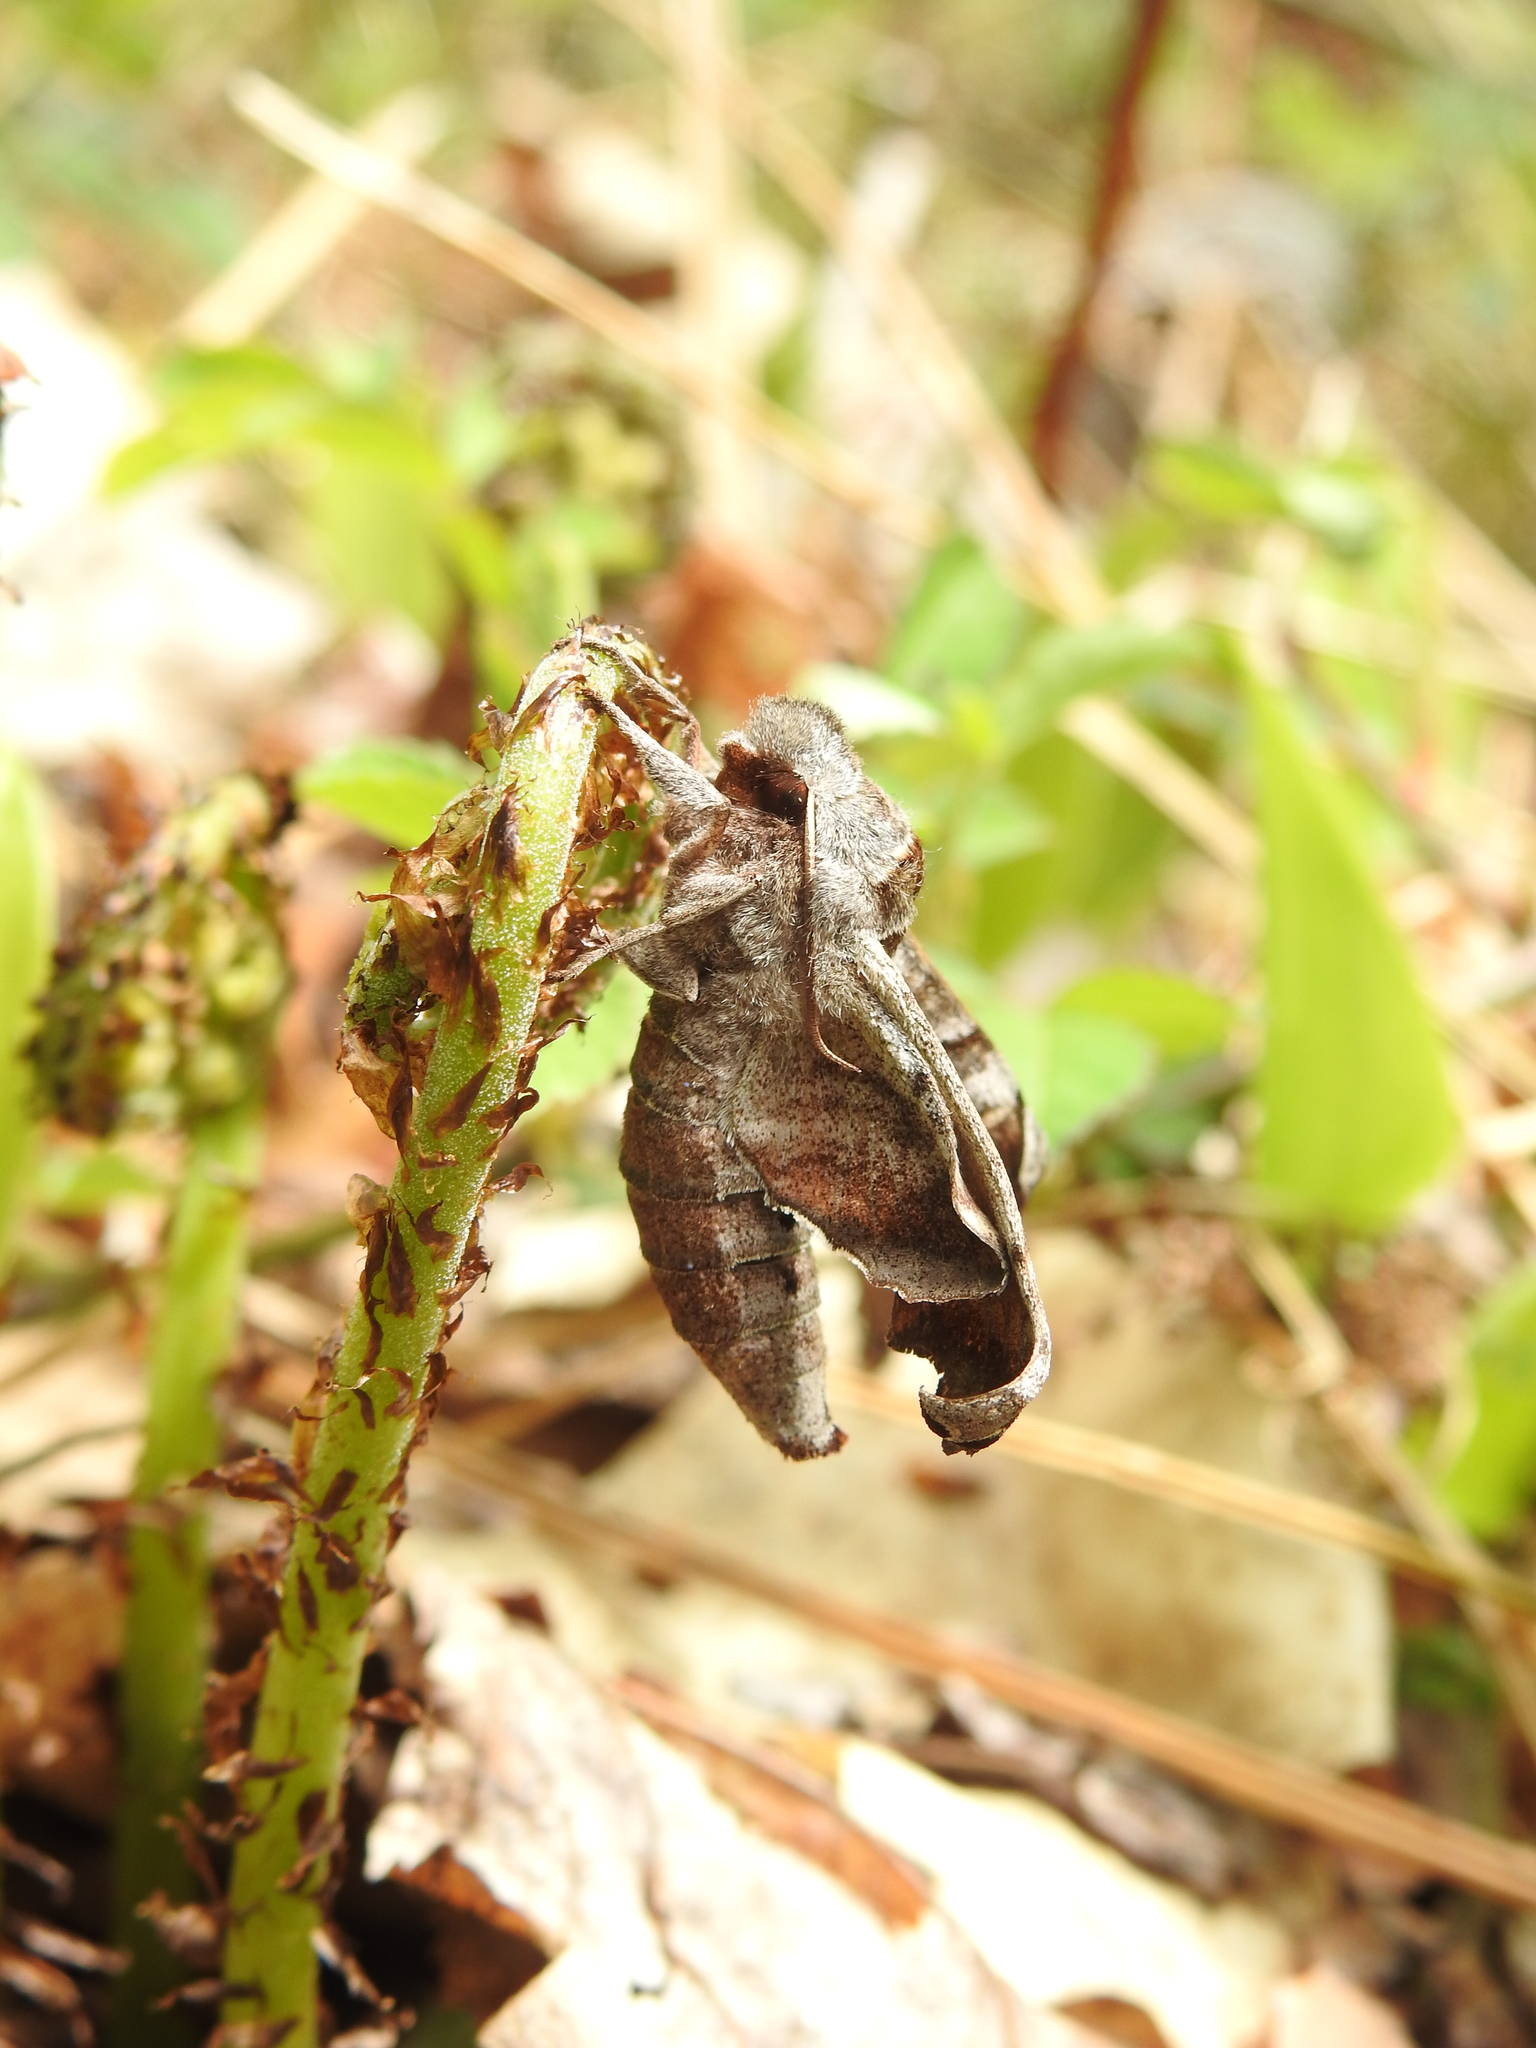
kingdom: Animalia
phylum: Arthropoda
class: Insecta
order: Lepidoptera
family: Sphingidae
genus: Deidamia
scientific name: Deidamia inscriptum
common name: Lettered sphinx
